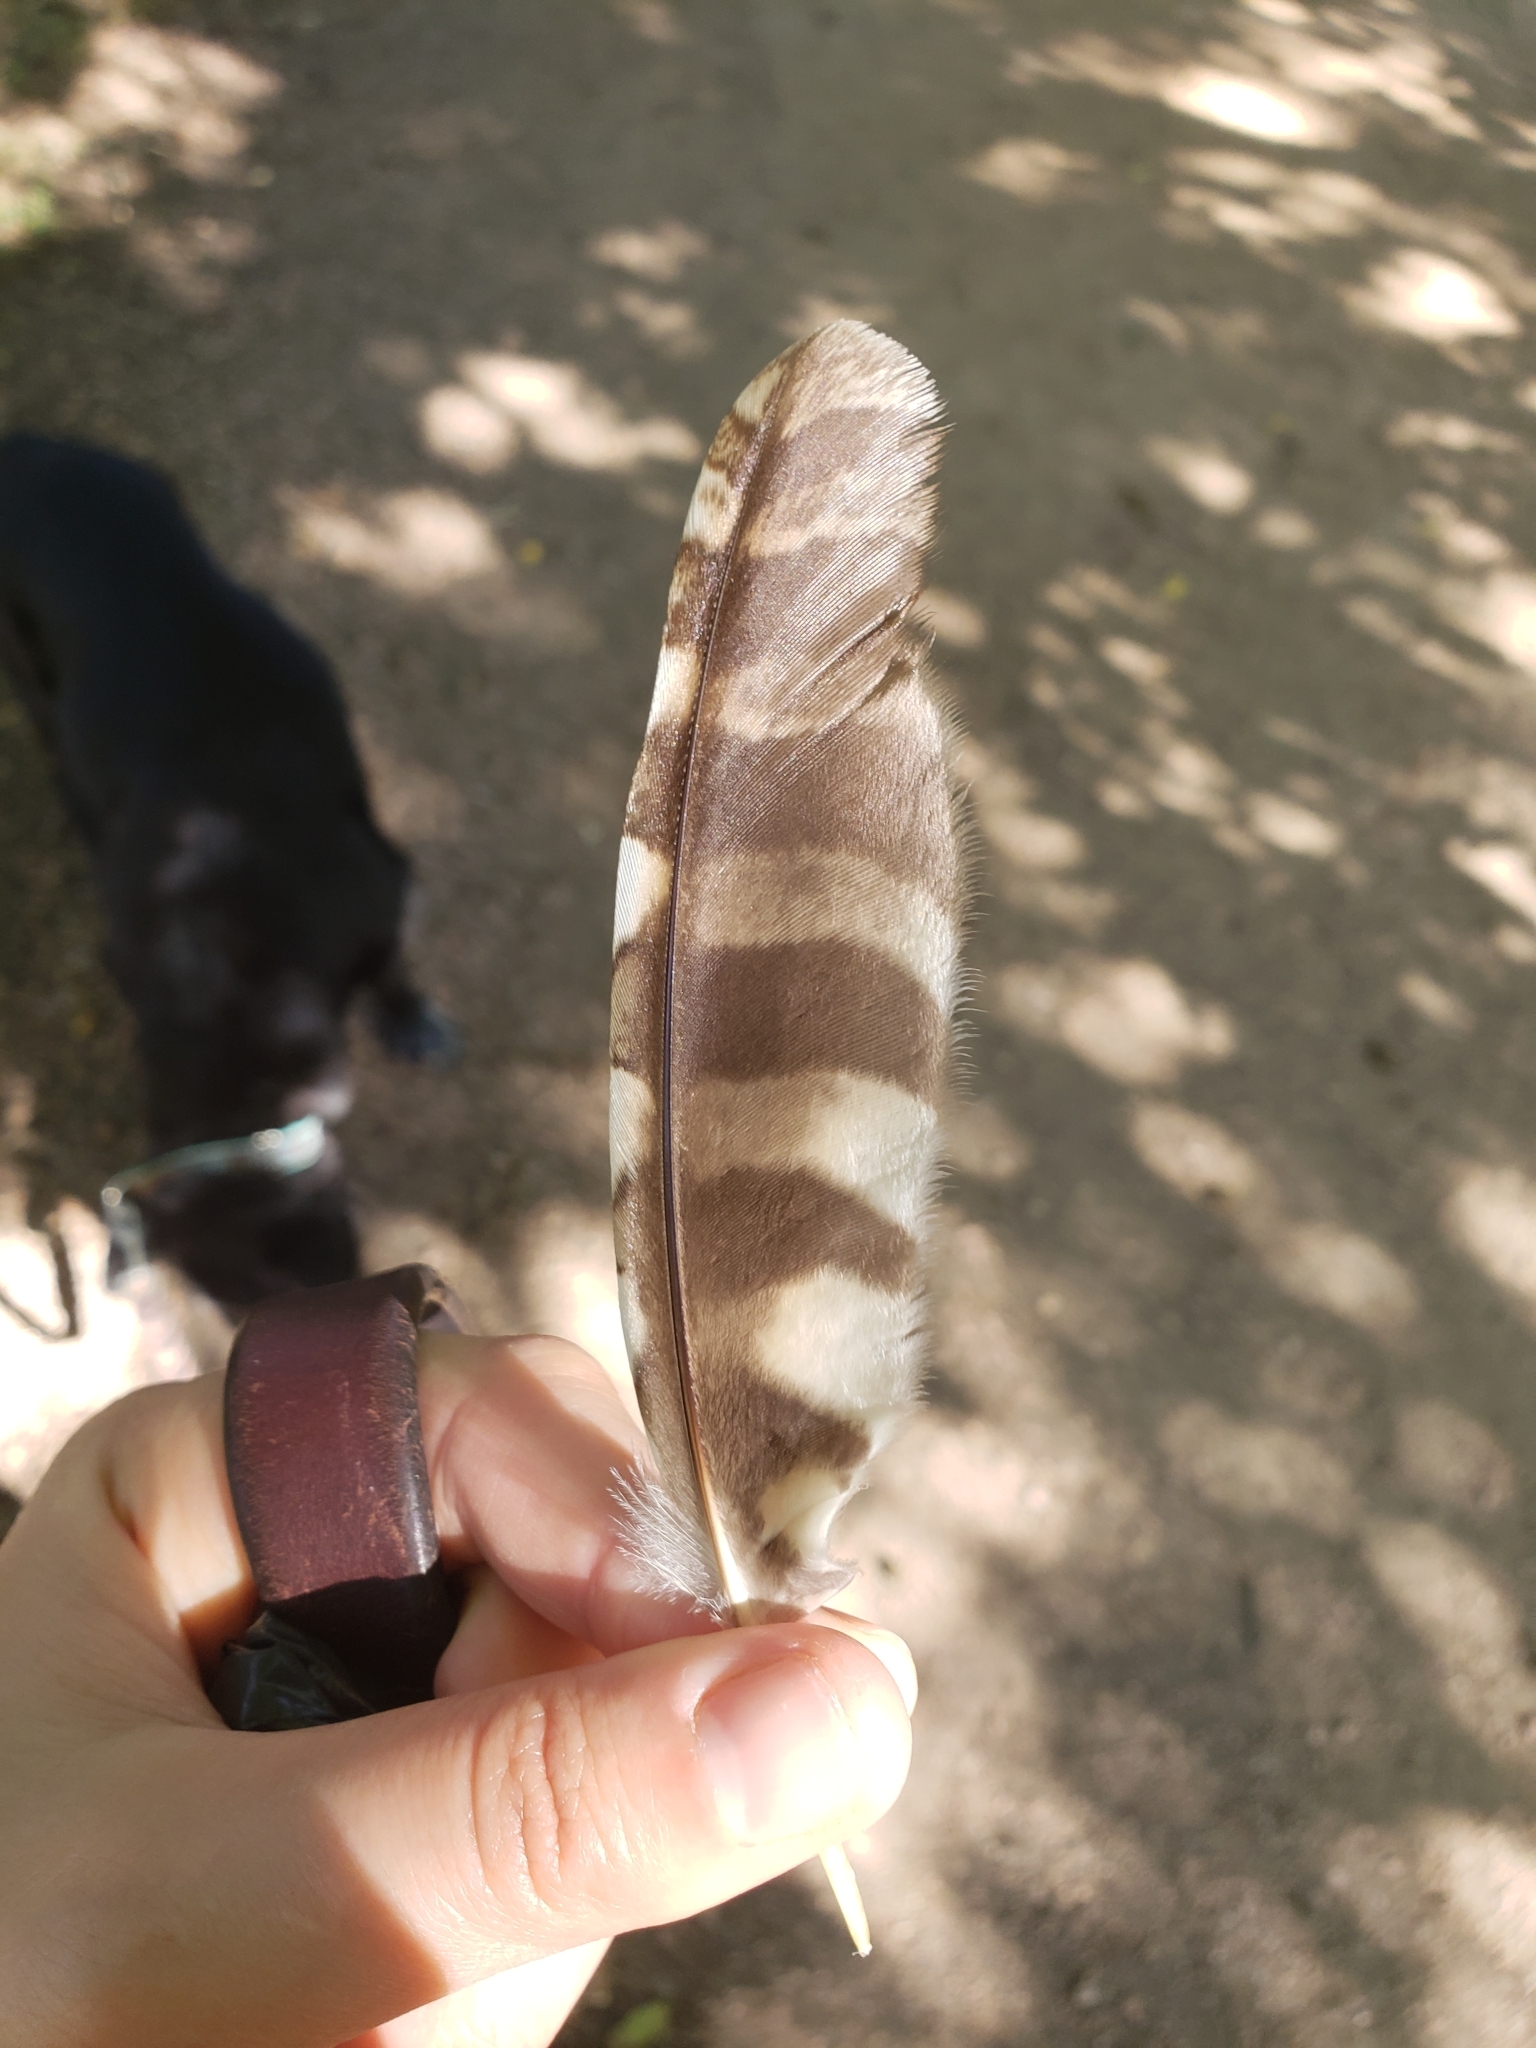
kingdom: Animalia
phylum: Chordata
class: Aves
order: Strigiformes
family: Strigidae
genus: Megascops
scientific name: Megascops asio
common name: Eastern screech-owl
